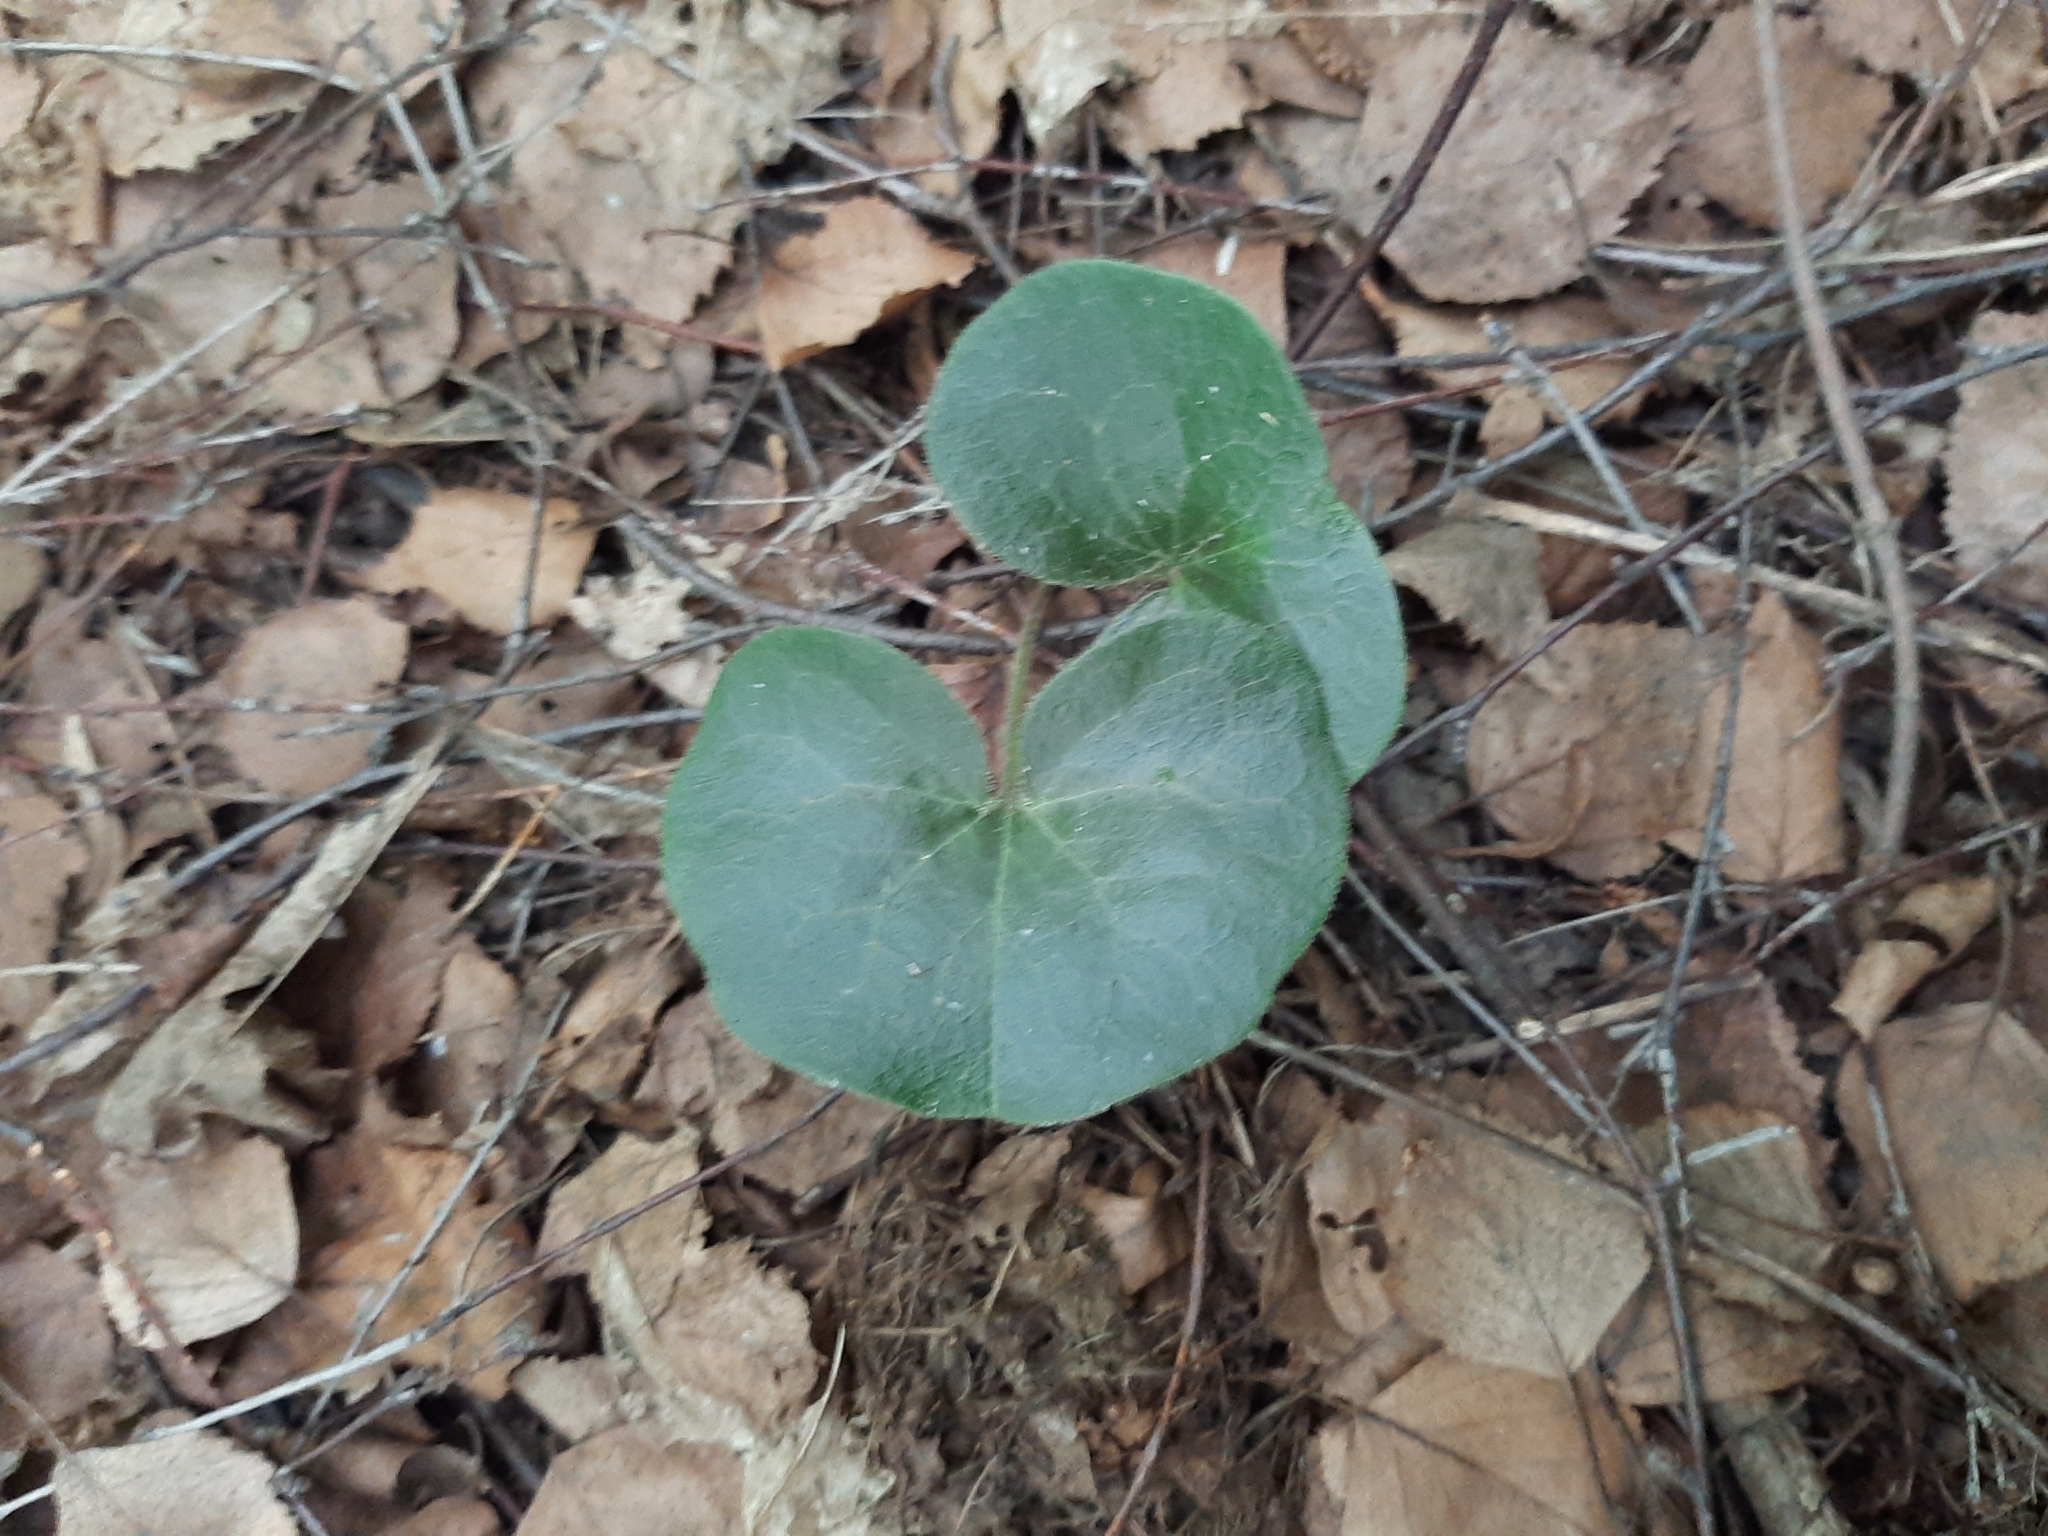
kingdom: Plantae
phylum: Tracheophyta
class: Magnoliopsida
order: Piperales
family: Aristolochiaceae
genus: Asarum
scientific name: Asarum europaeum
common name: Asarabacca
